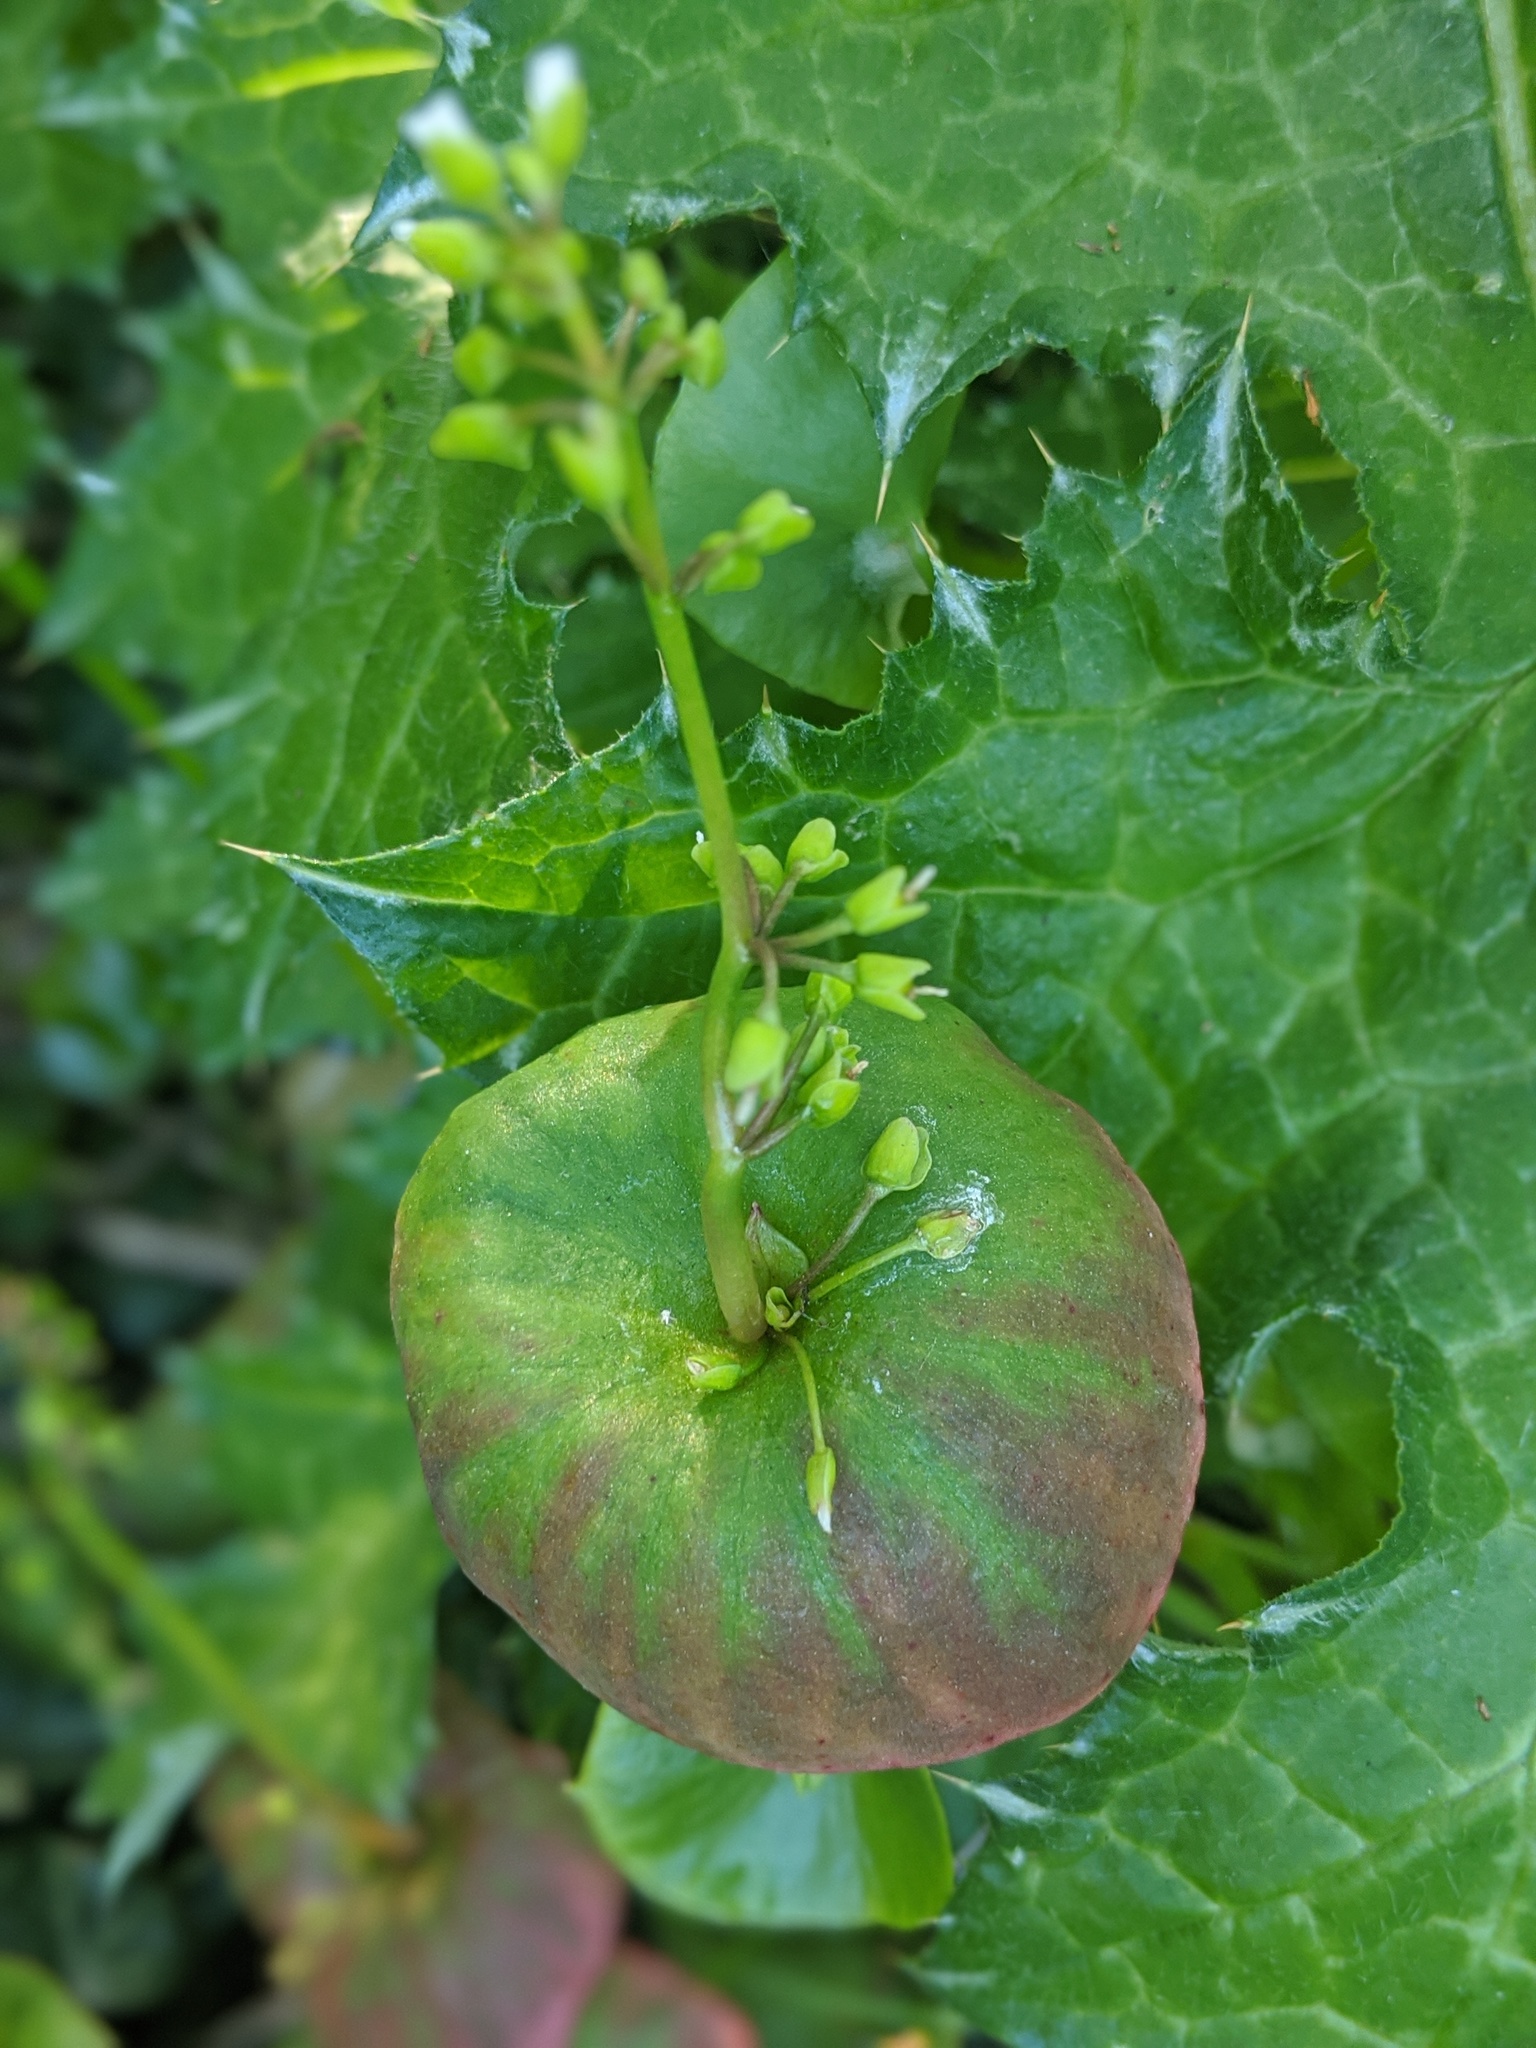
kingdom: Plantae
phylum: Tracheophyta
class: Magnoliopsida
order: Caryophyllales
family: Montiaceae
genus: Claytonia
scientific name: Claytonia perfoliata
